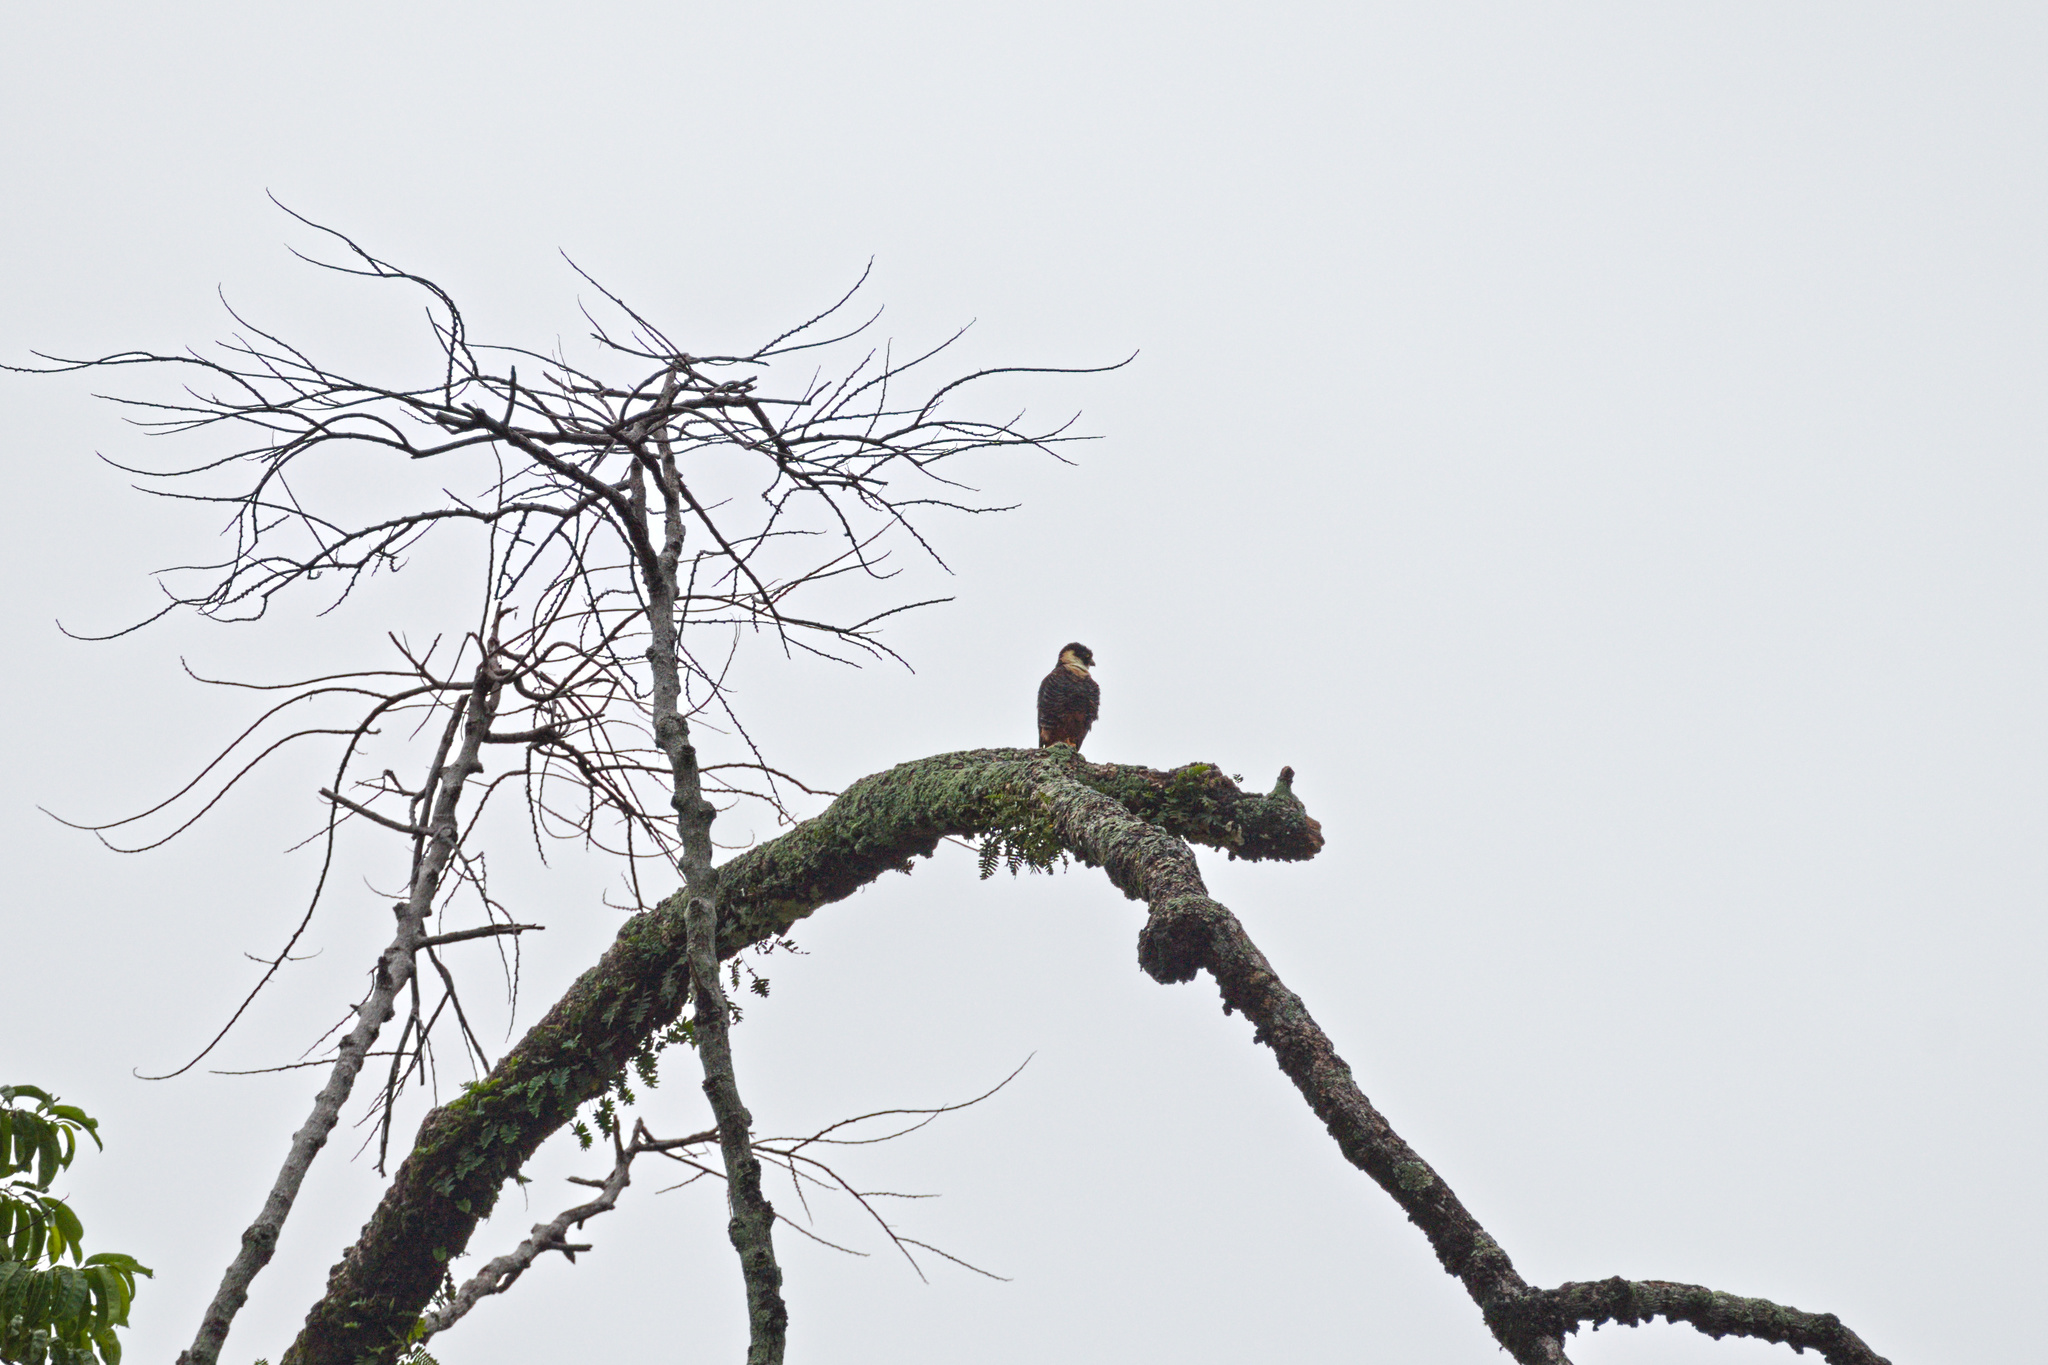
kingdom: Animalia
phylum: Chordata
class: Aves
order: Falconiformes
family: Falconidae
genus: Falco
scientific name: Falco rufigularis
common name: Bat falcon
